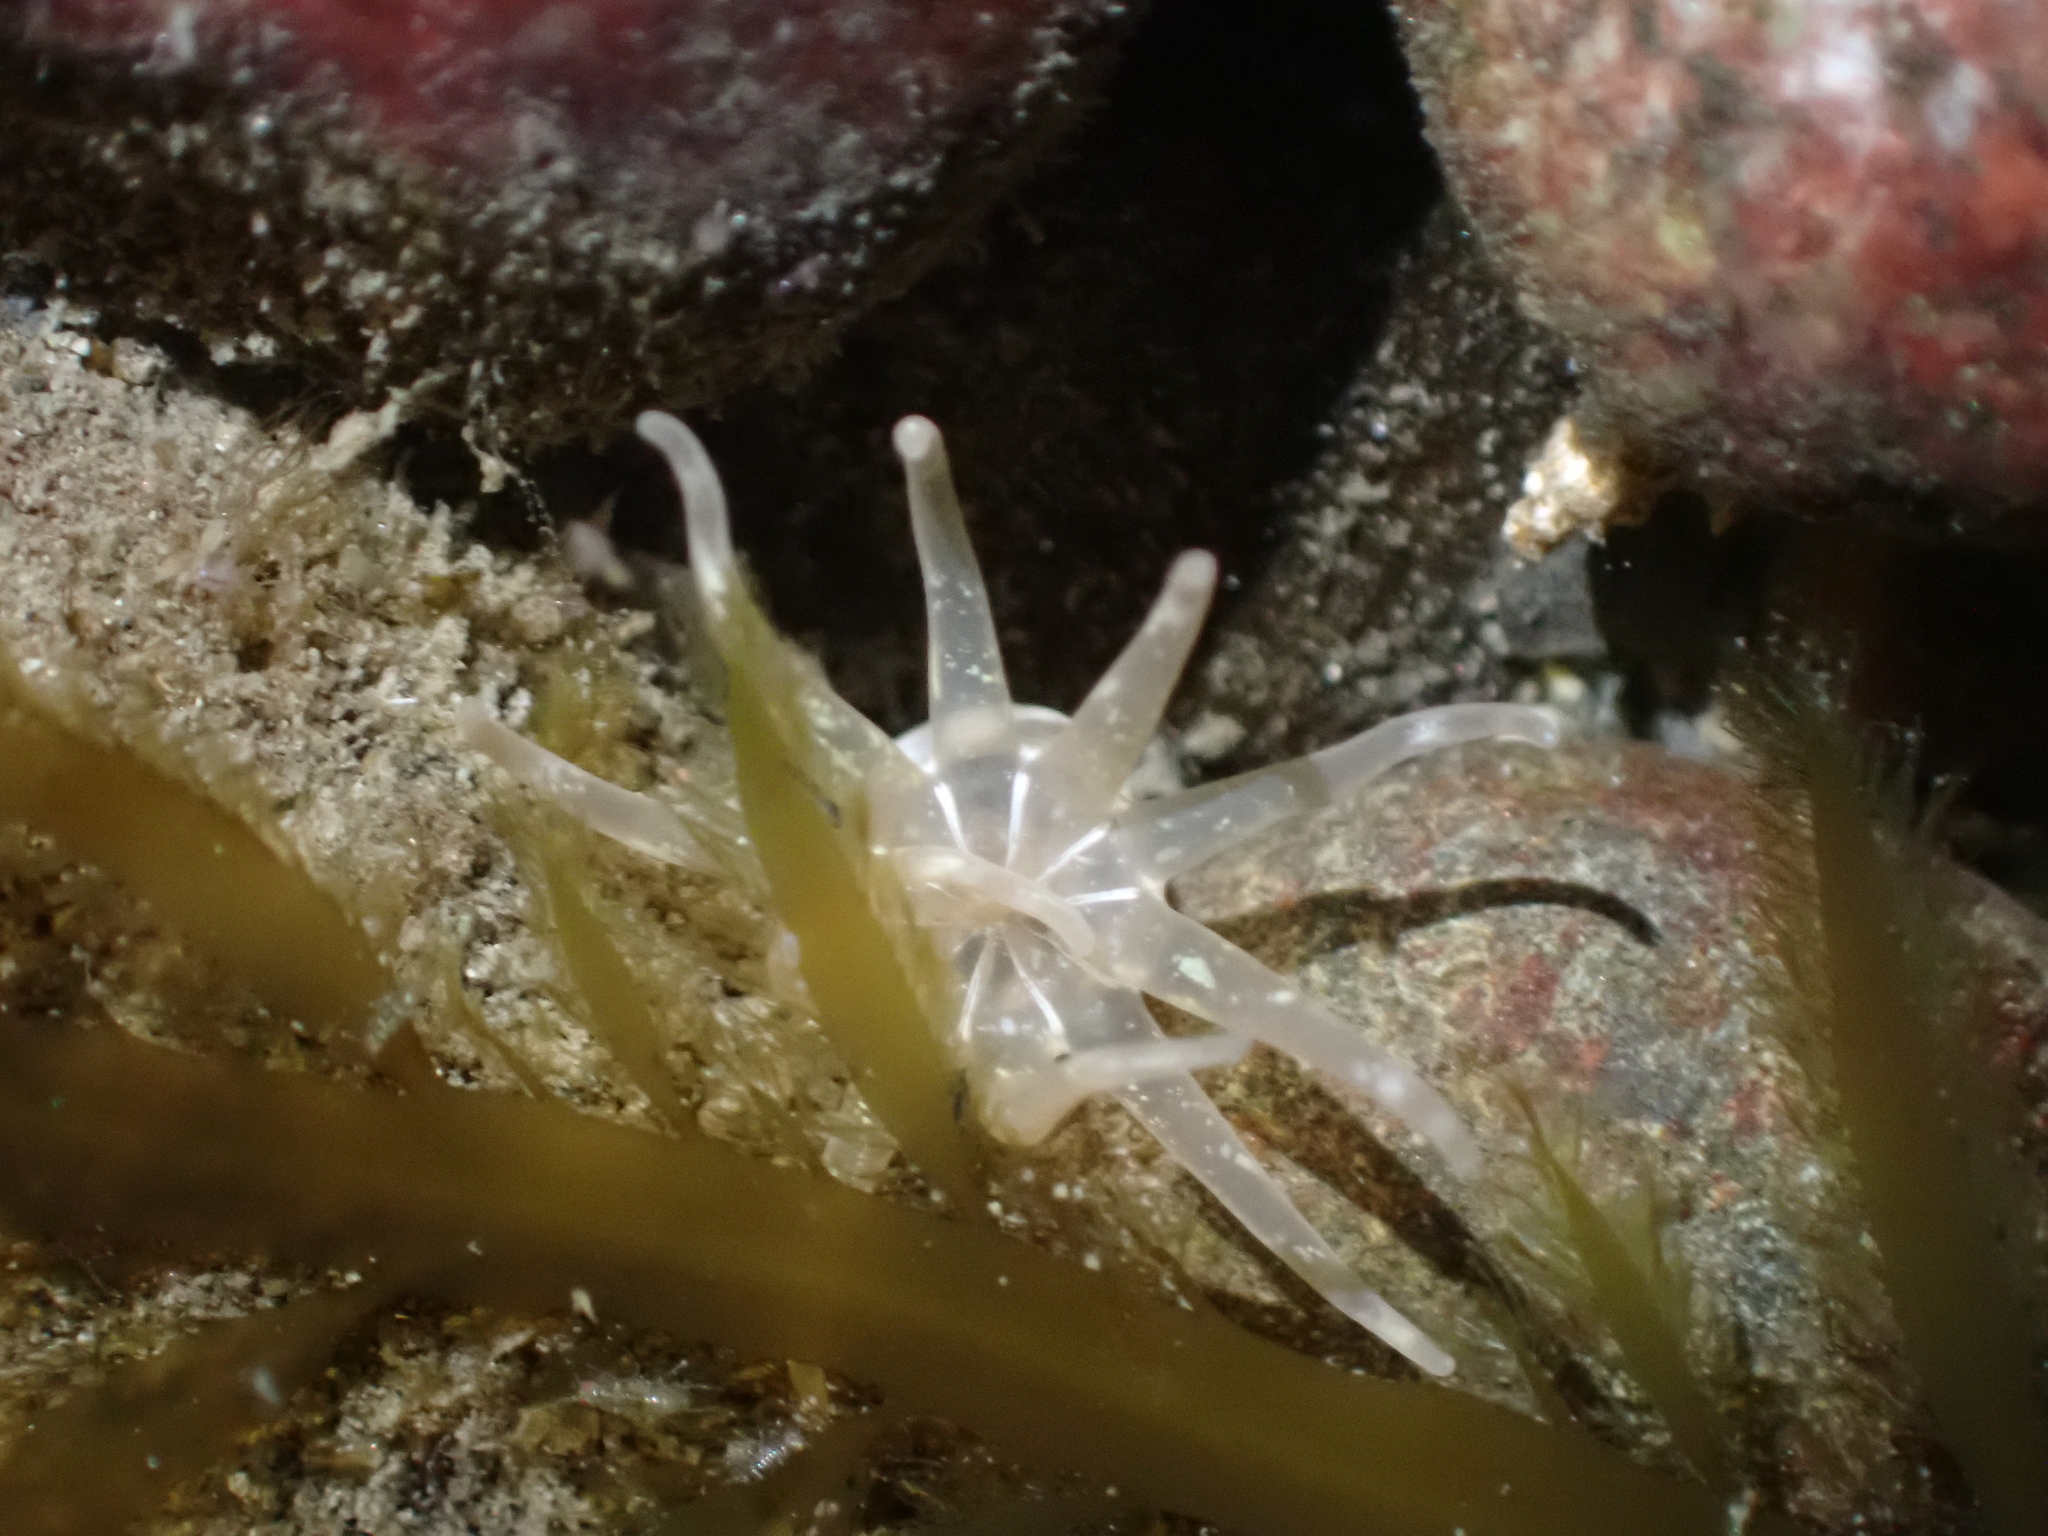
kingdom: Animalia
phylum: Cnidaria
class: Anthozoa
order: Actiniaria
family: Halcampidae
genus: Halcampa
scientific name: Halcampa decemtentaculata
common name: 10-tentacle burrowing anemone
